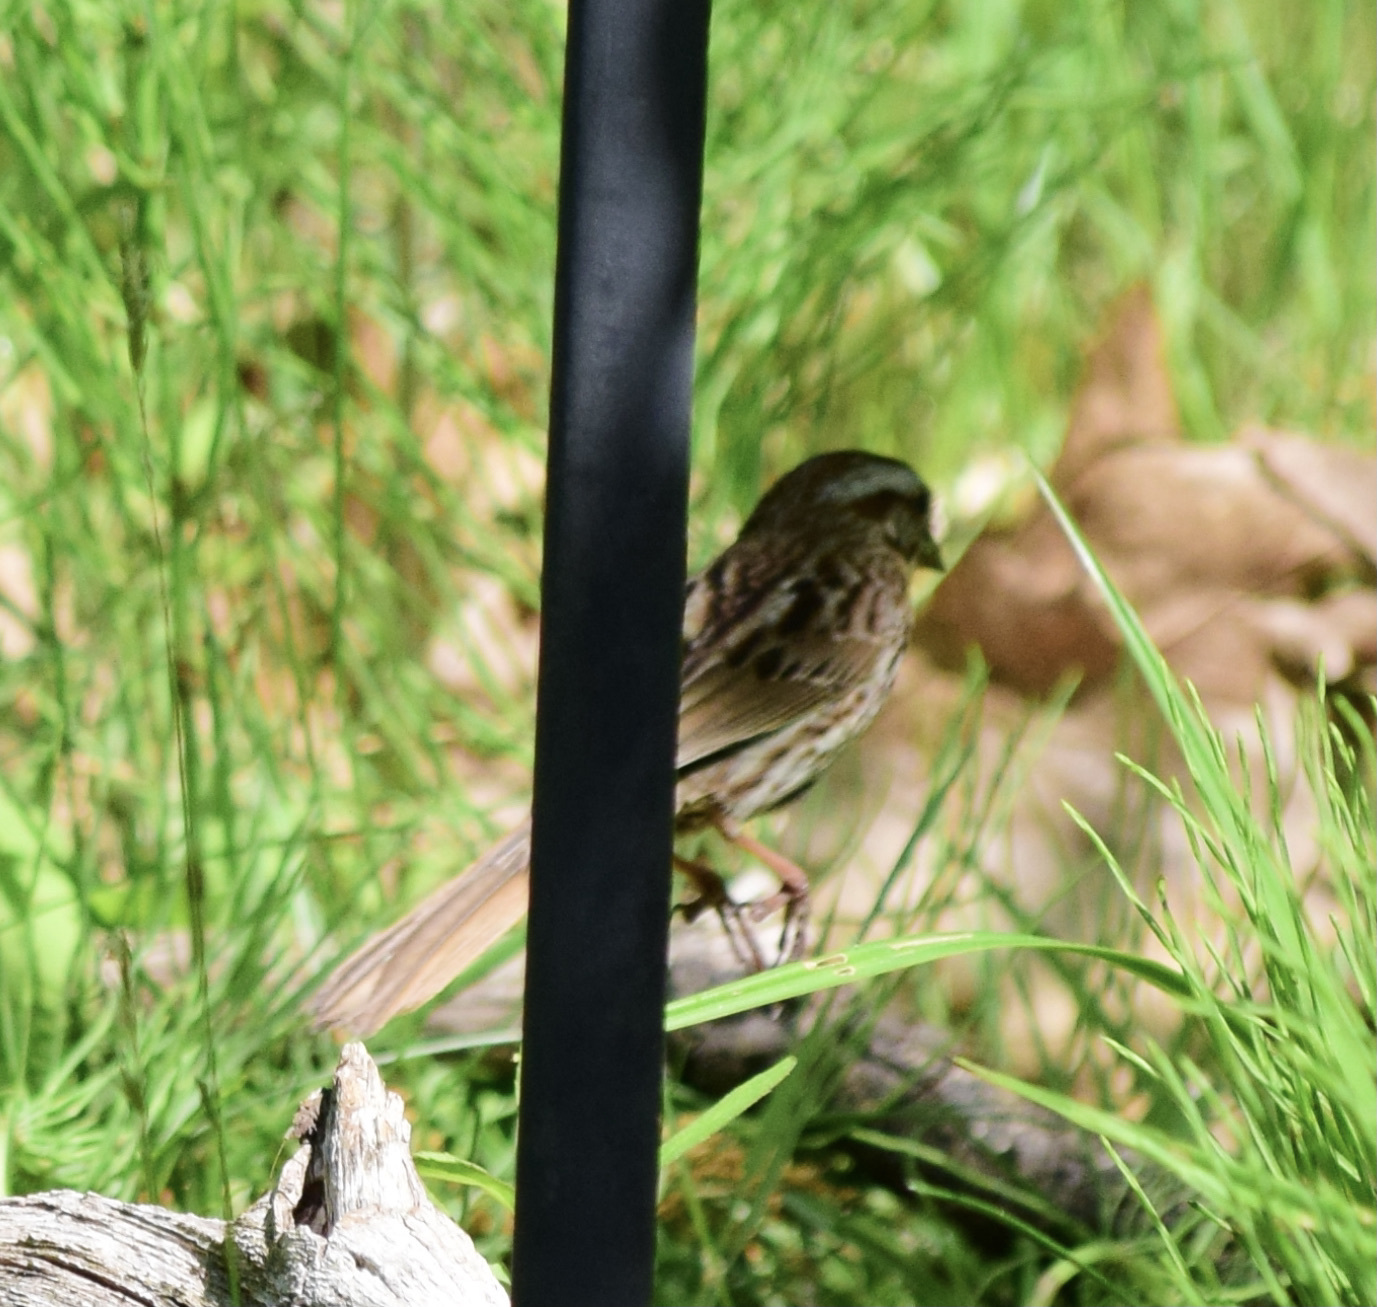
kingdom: Animalia
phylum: Chordata
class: Aves
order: Passeriformes
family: Passerellidae
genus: Melospiza
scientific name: Melospiza melodia
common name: Song sparrow
